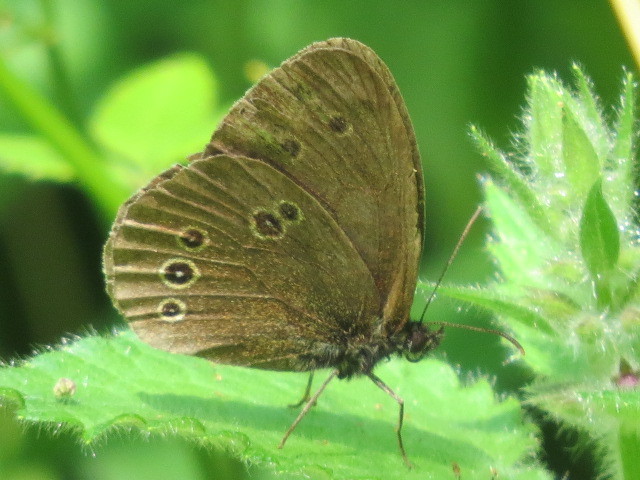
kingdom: Animalia
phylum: Arthropoda
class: Insecta
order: Lepidoptera
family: Nymphalidae
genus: Aphantopus
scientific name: Aphantopus hyperantus
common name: Ringlet
